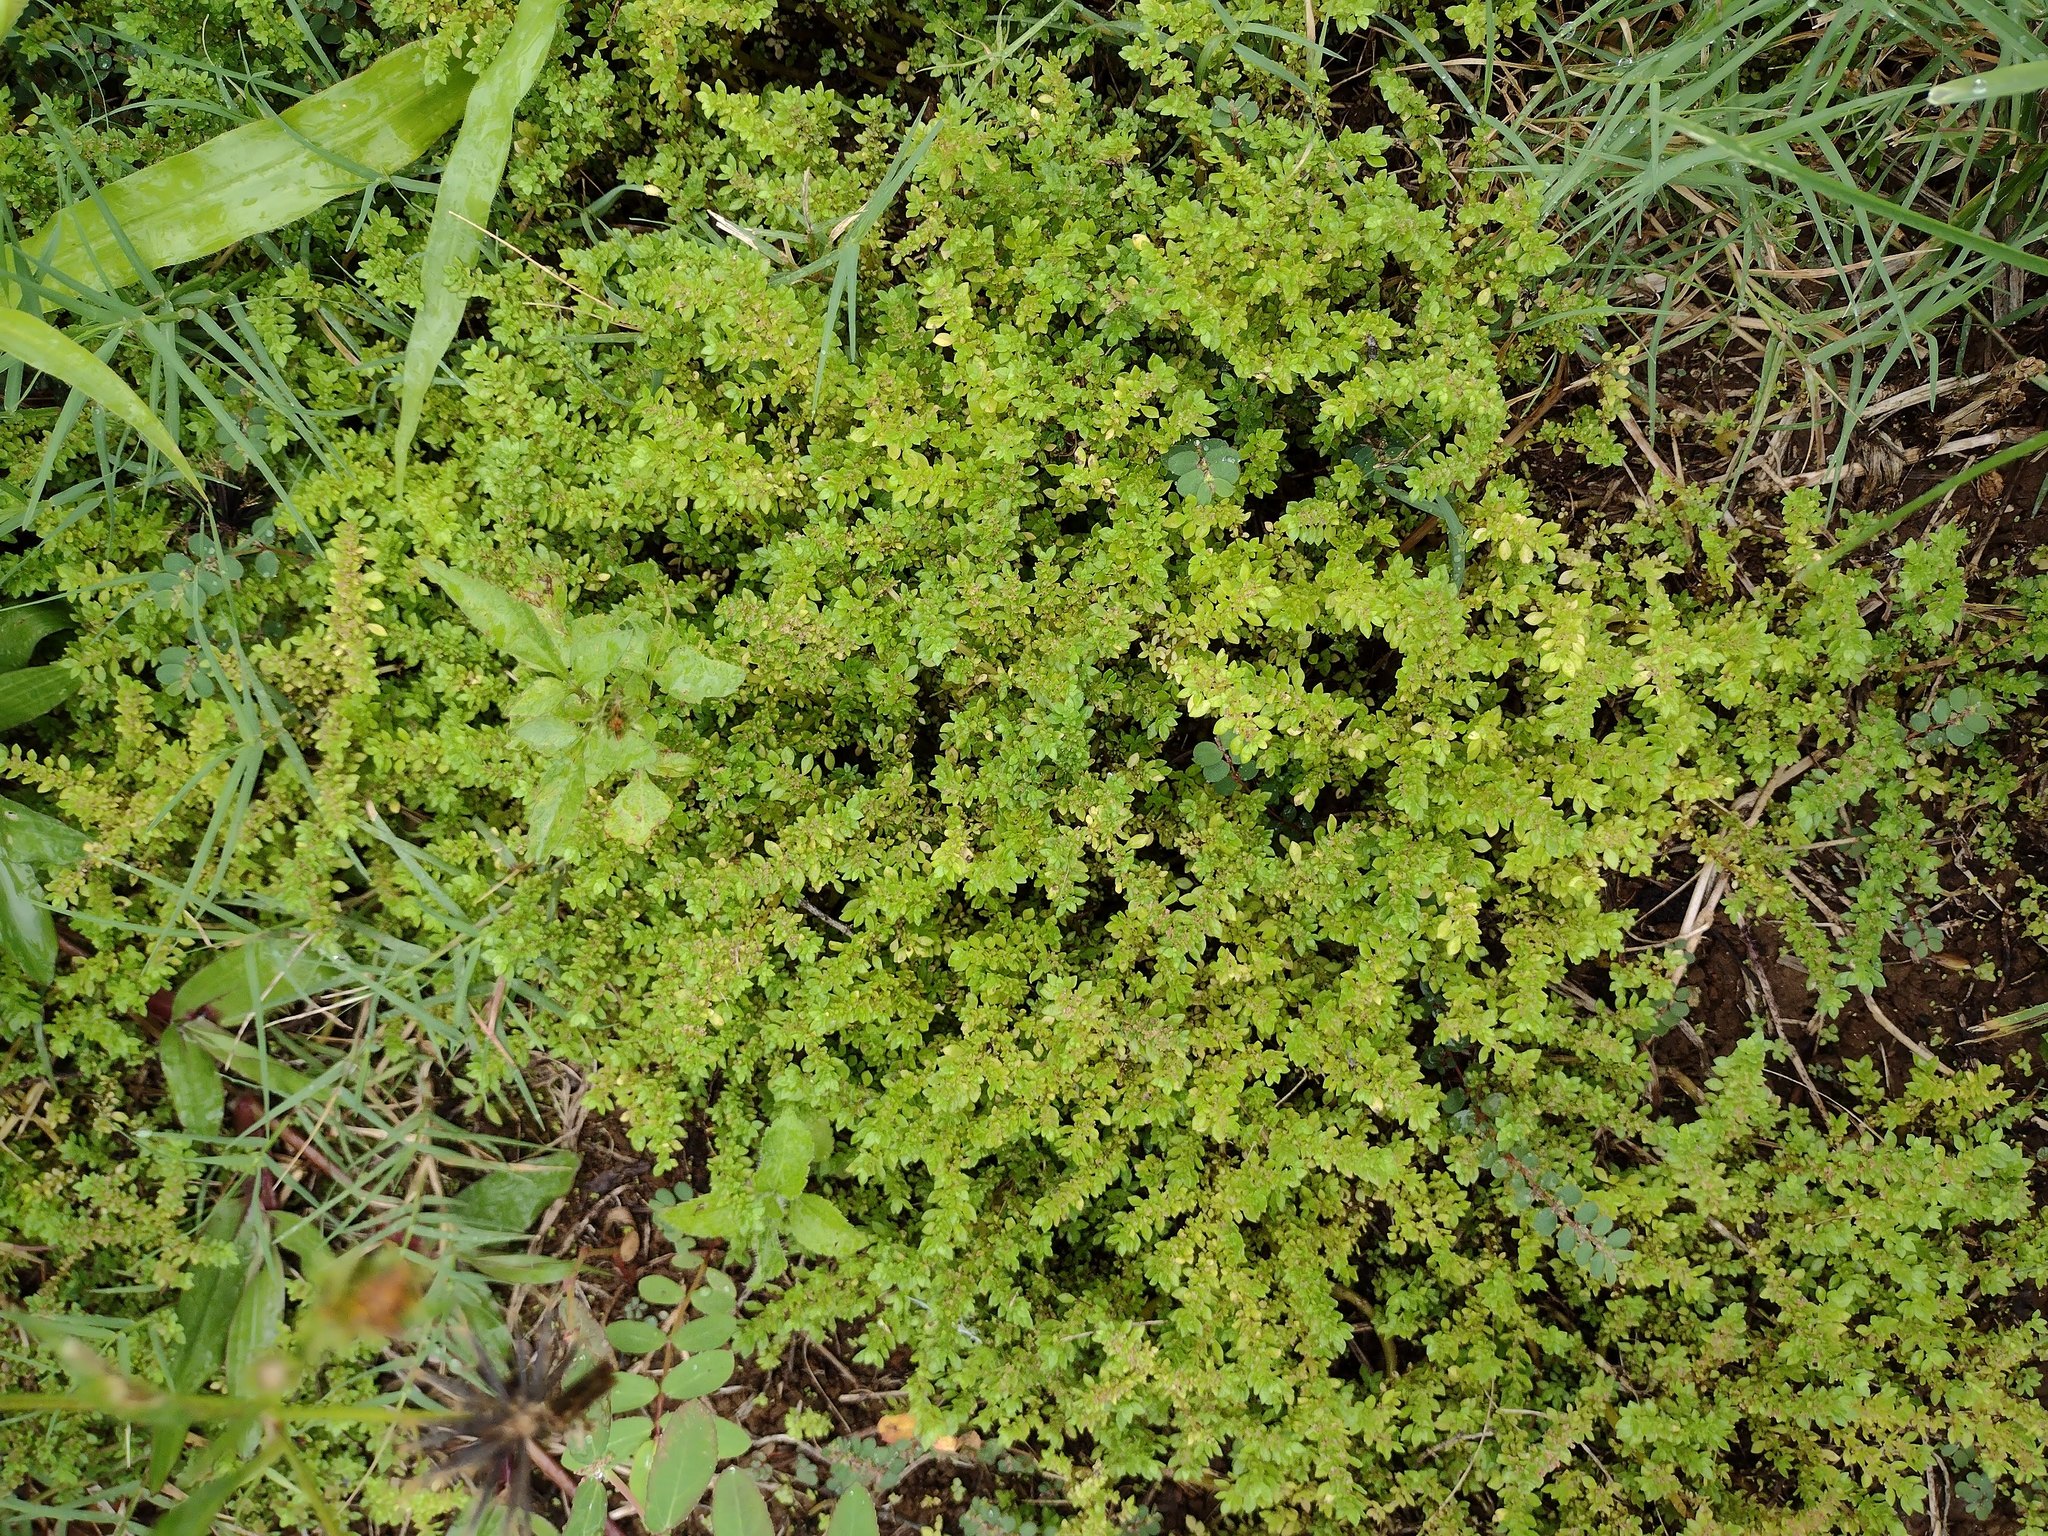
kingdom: Plantae
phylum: Tracheophyta
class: Magnoliopsida
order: Rosales
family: Urticaceae
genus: Pilea
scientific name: Pilea microphylla
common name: Artillery-plant
